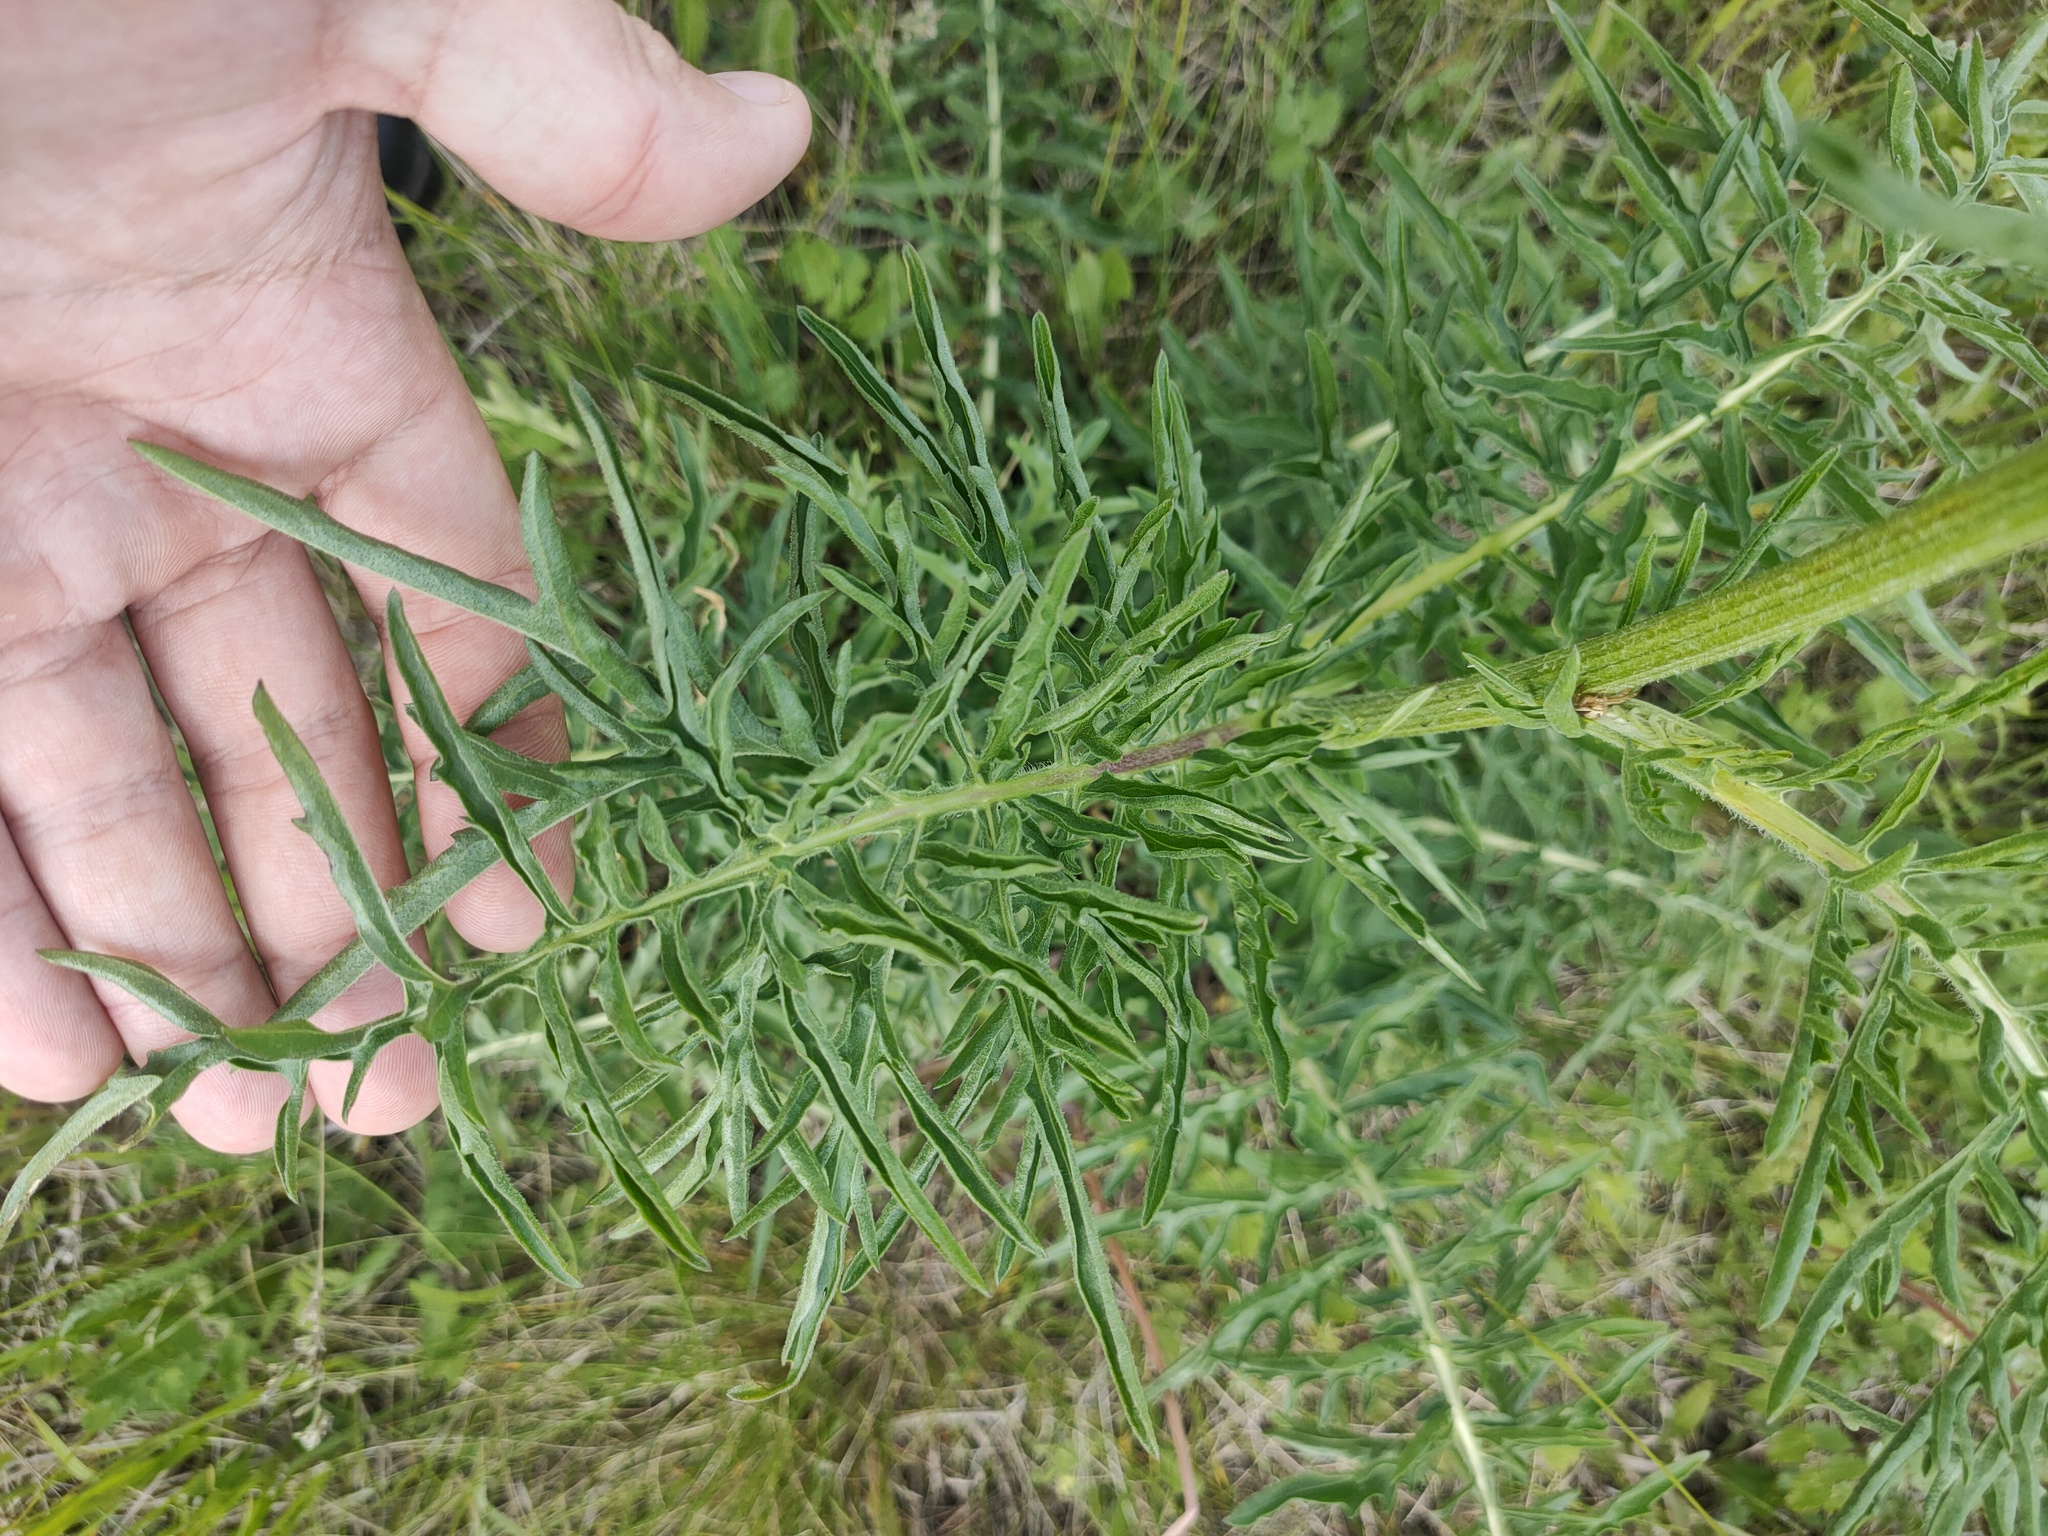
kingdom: Plantae
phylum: Tracheophyta
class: Magnoliopsida
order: Asterales
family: Asteraceae
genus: Centaurea
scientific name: Centaurea scabiosa
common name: Greater knapweed
